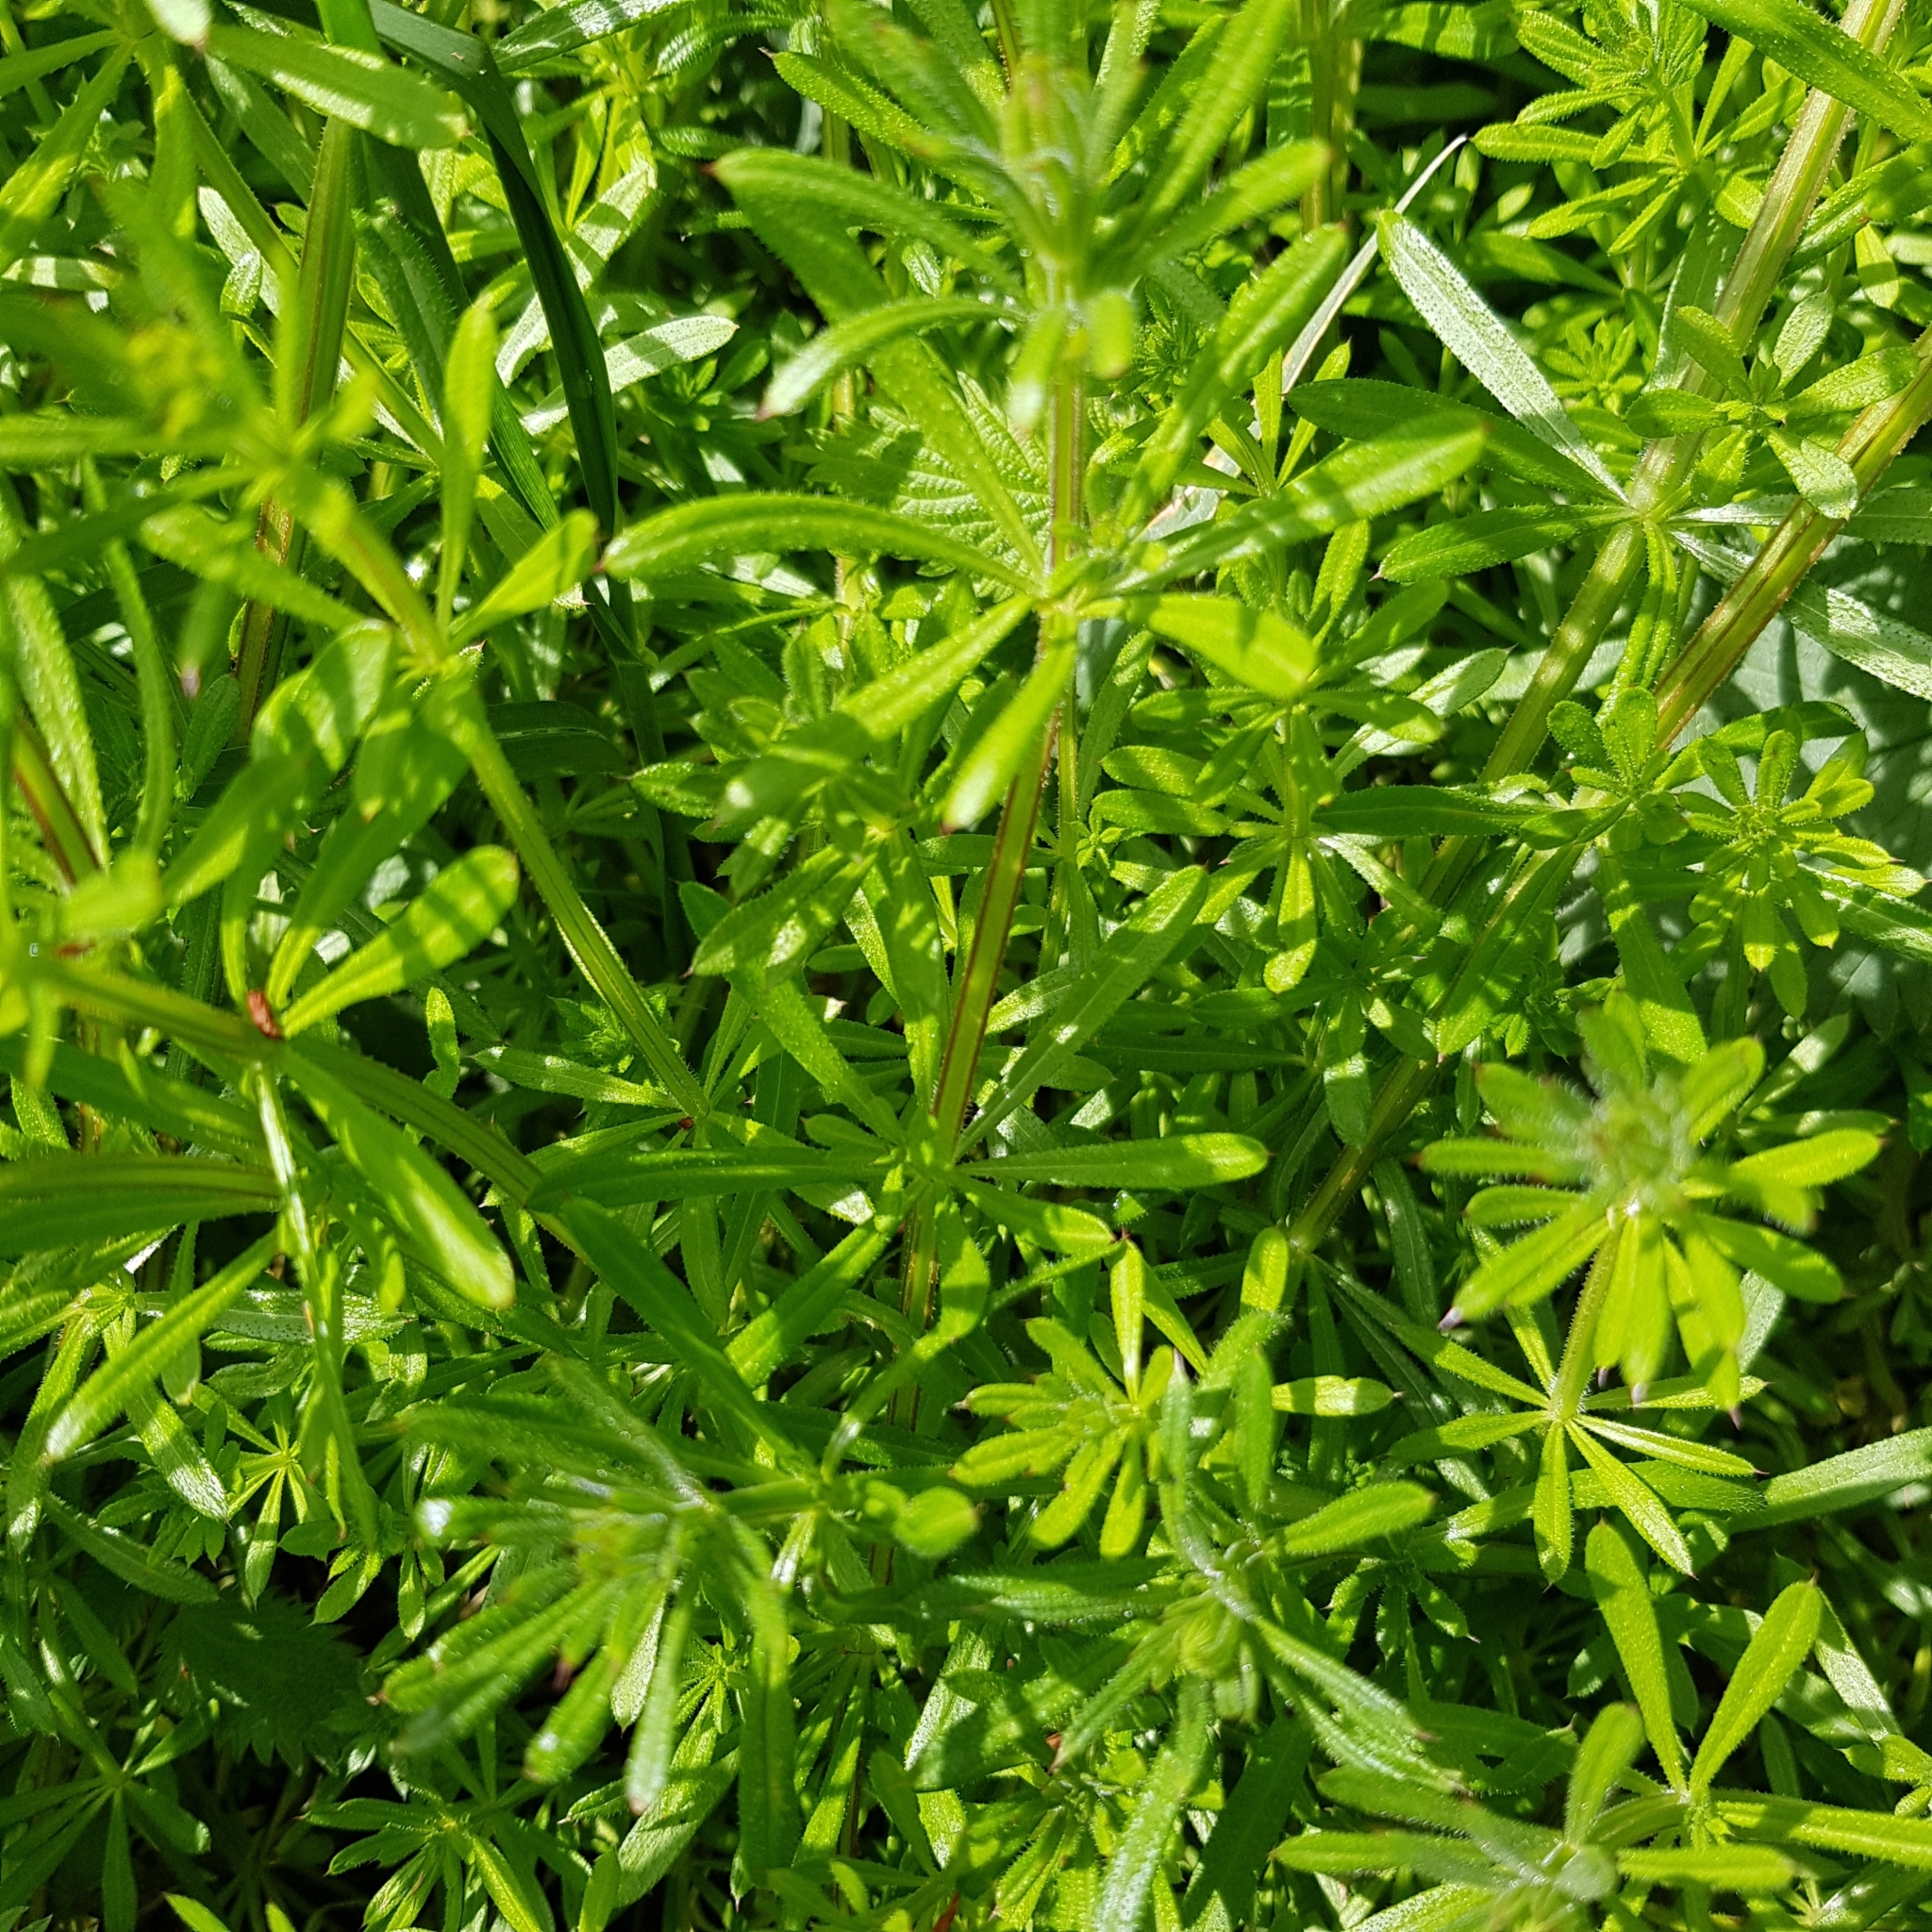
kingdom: Plantae
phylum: Tracheophyta
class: Magnoliopsida
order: Gentianales
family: Rubiaceae
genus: Galium
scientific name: Galium aparine
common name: Cleavers
